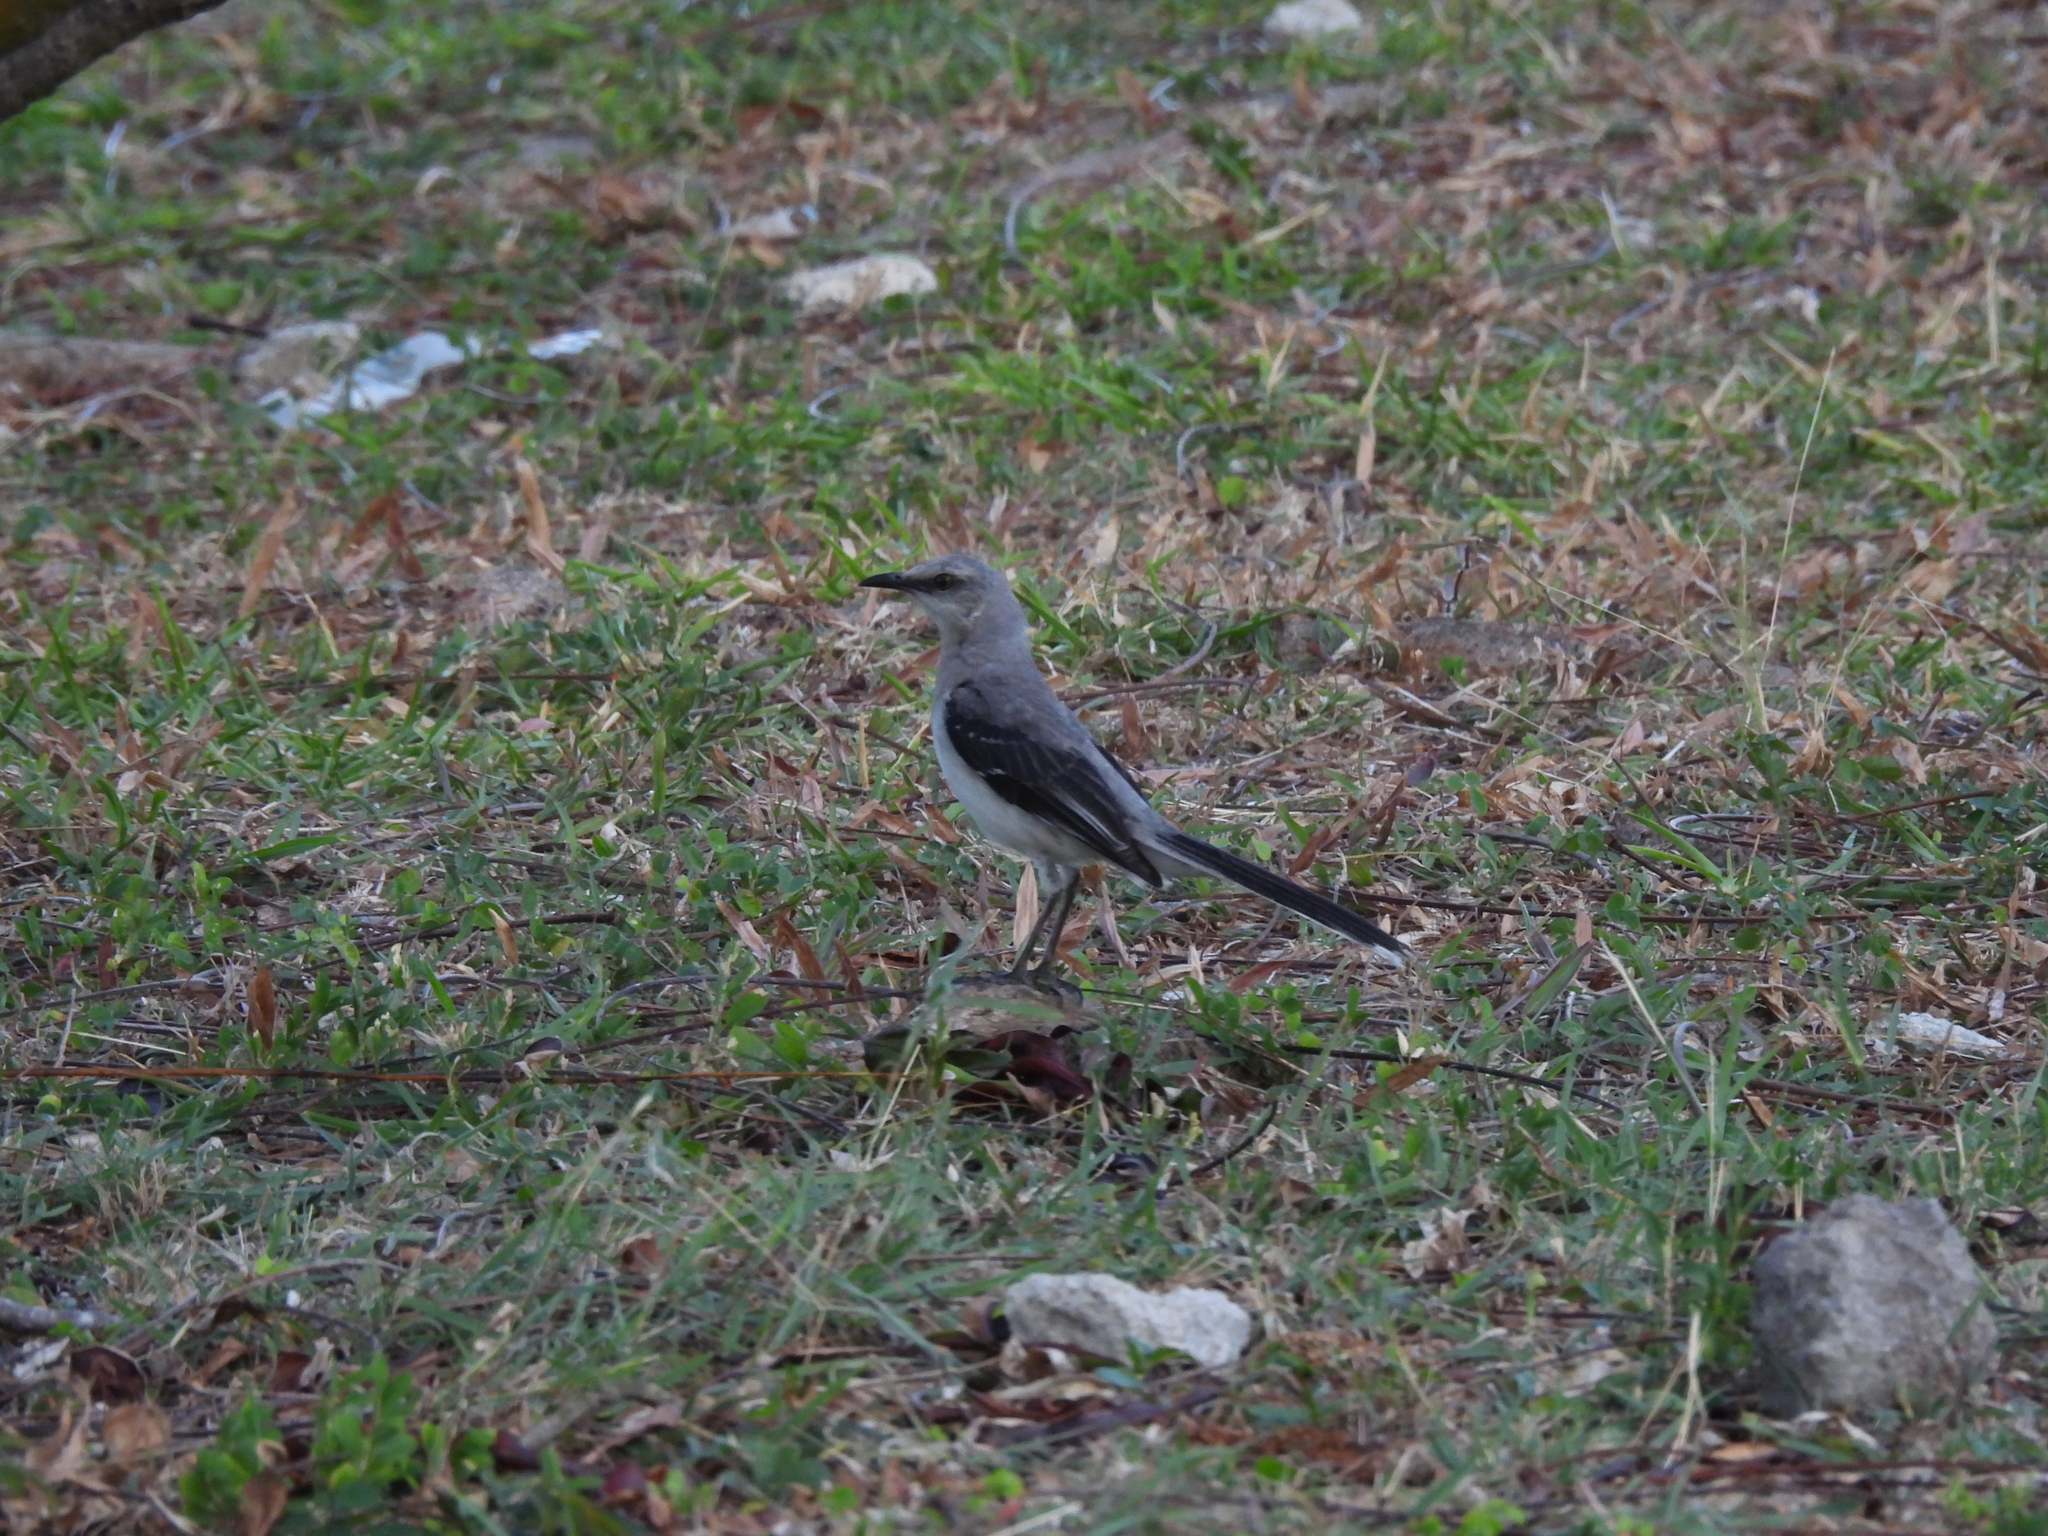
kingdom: Animalia
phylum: Chordata
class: Aves
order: Passeriformes
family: Mimidae
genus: Mimus
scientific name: Mimus gilvus
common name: Tropical mockingbird
